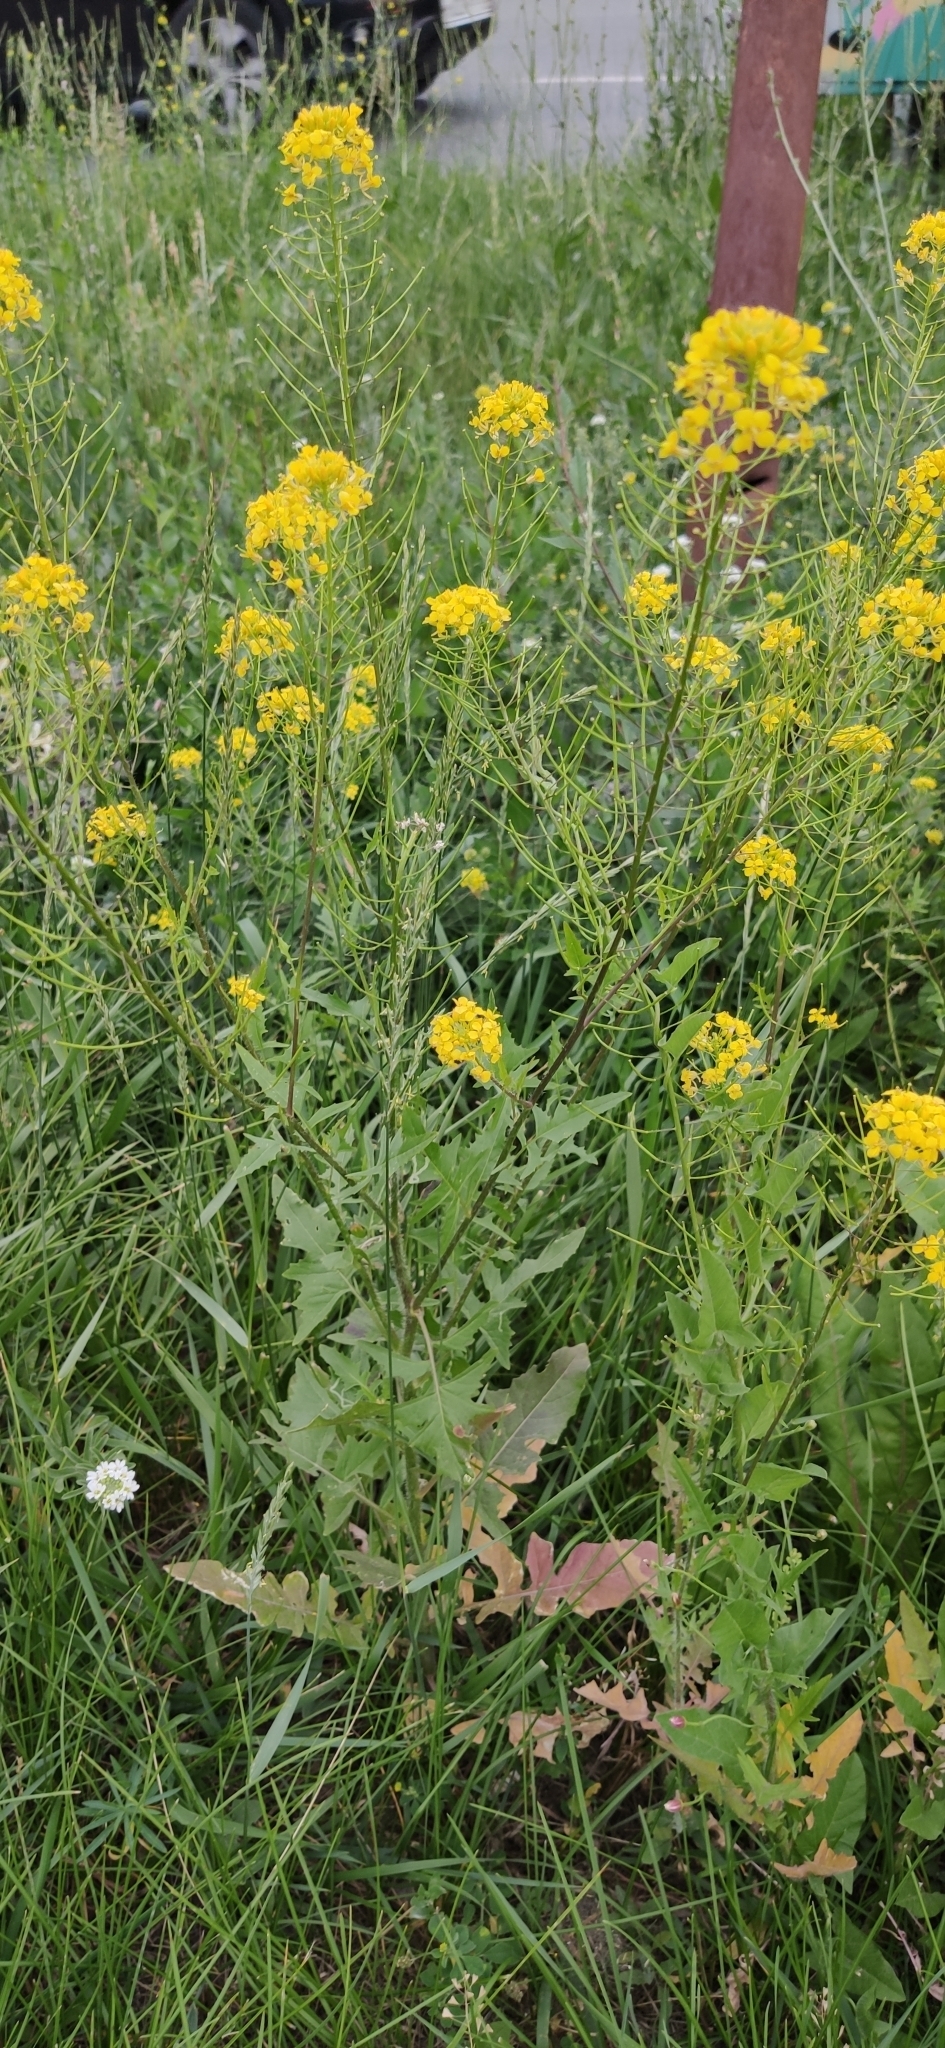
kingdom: Plantae
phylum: Tracheophyta
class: Magnoliopsida
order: Brassicales
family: Brassicaceae
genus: Sisymbrium
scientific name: Sisymbrium loeselii
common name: False london-rocket
